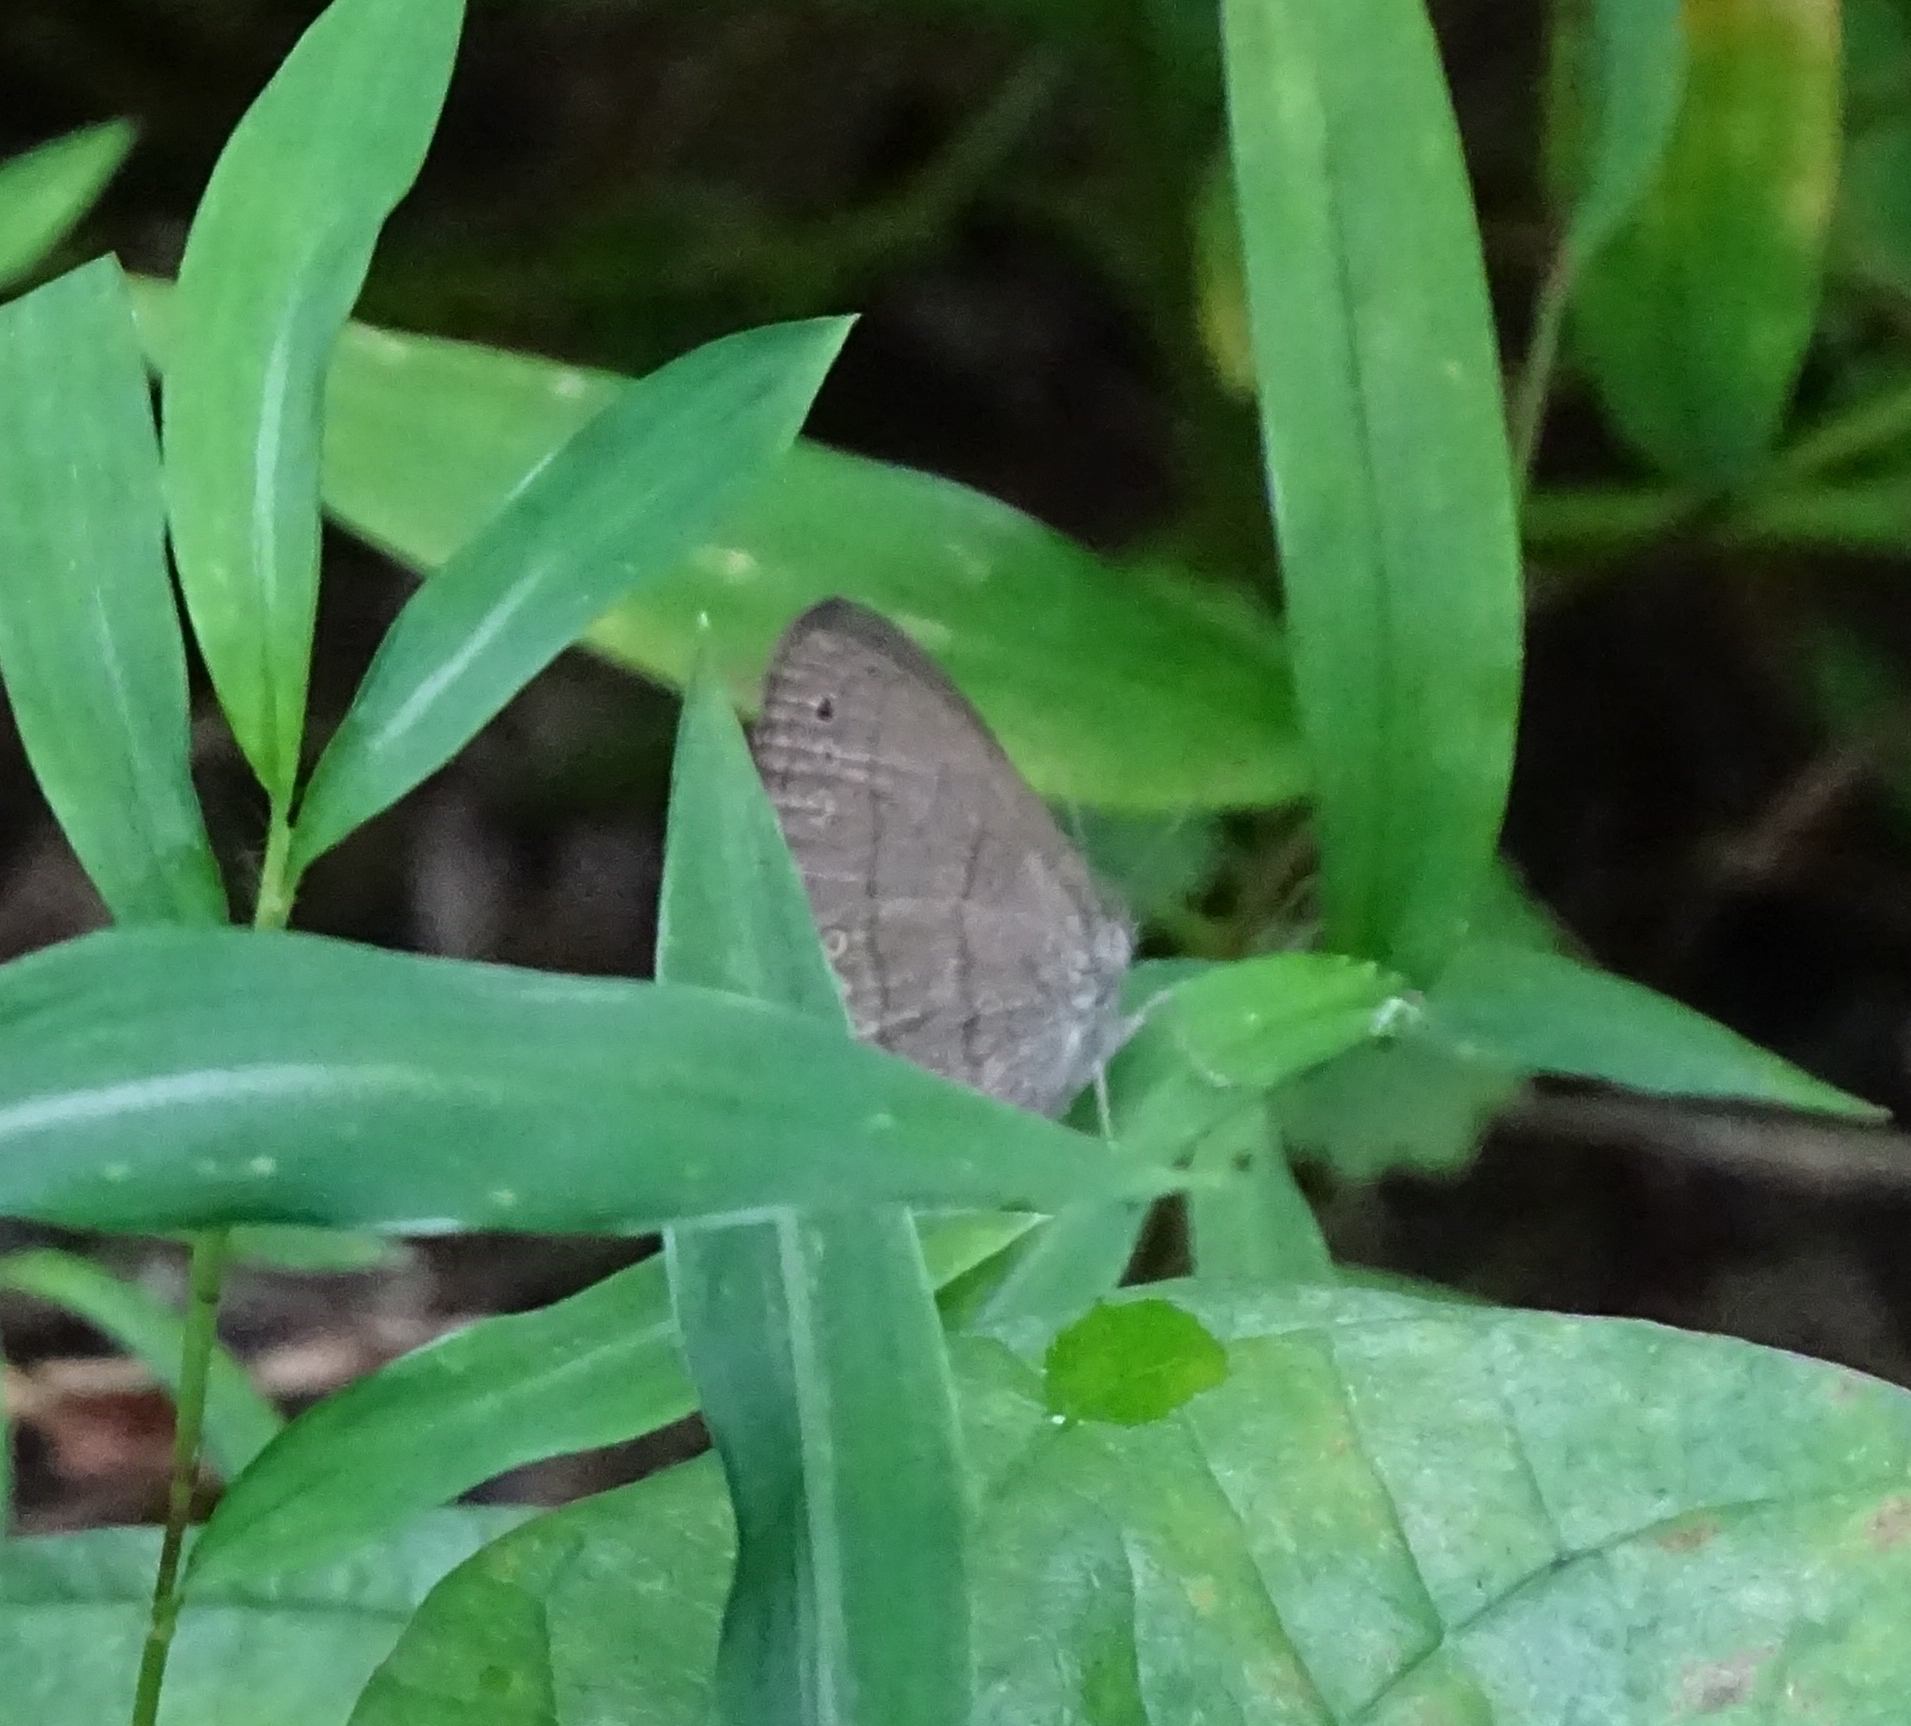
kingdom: Animalia
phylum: Arthropoda
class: Insecta
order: Lepidoptera
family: Nymphalidae
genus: Hermeuptychia
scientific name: Hermeuptychia hermes
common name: Hermes satyr
